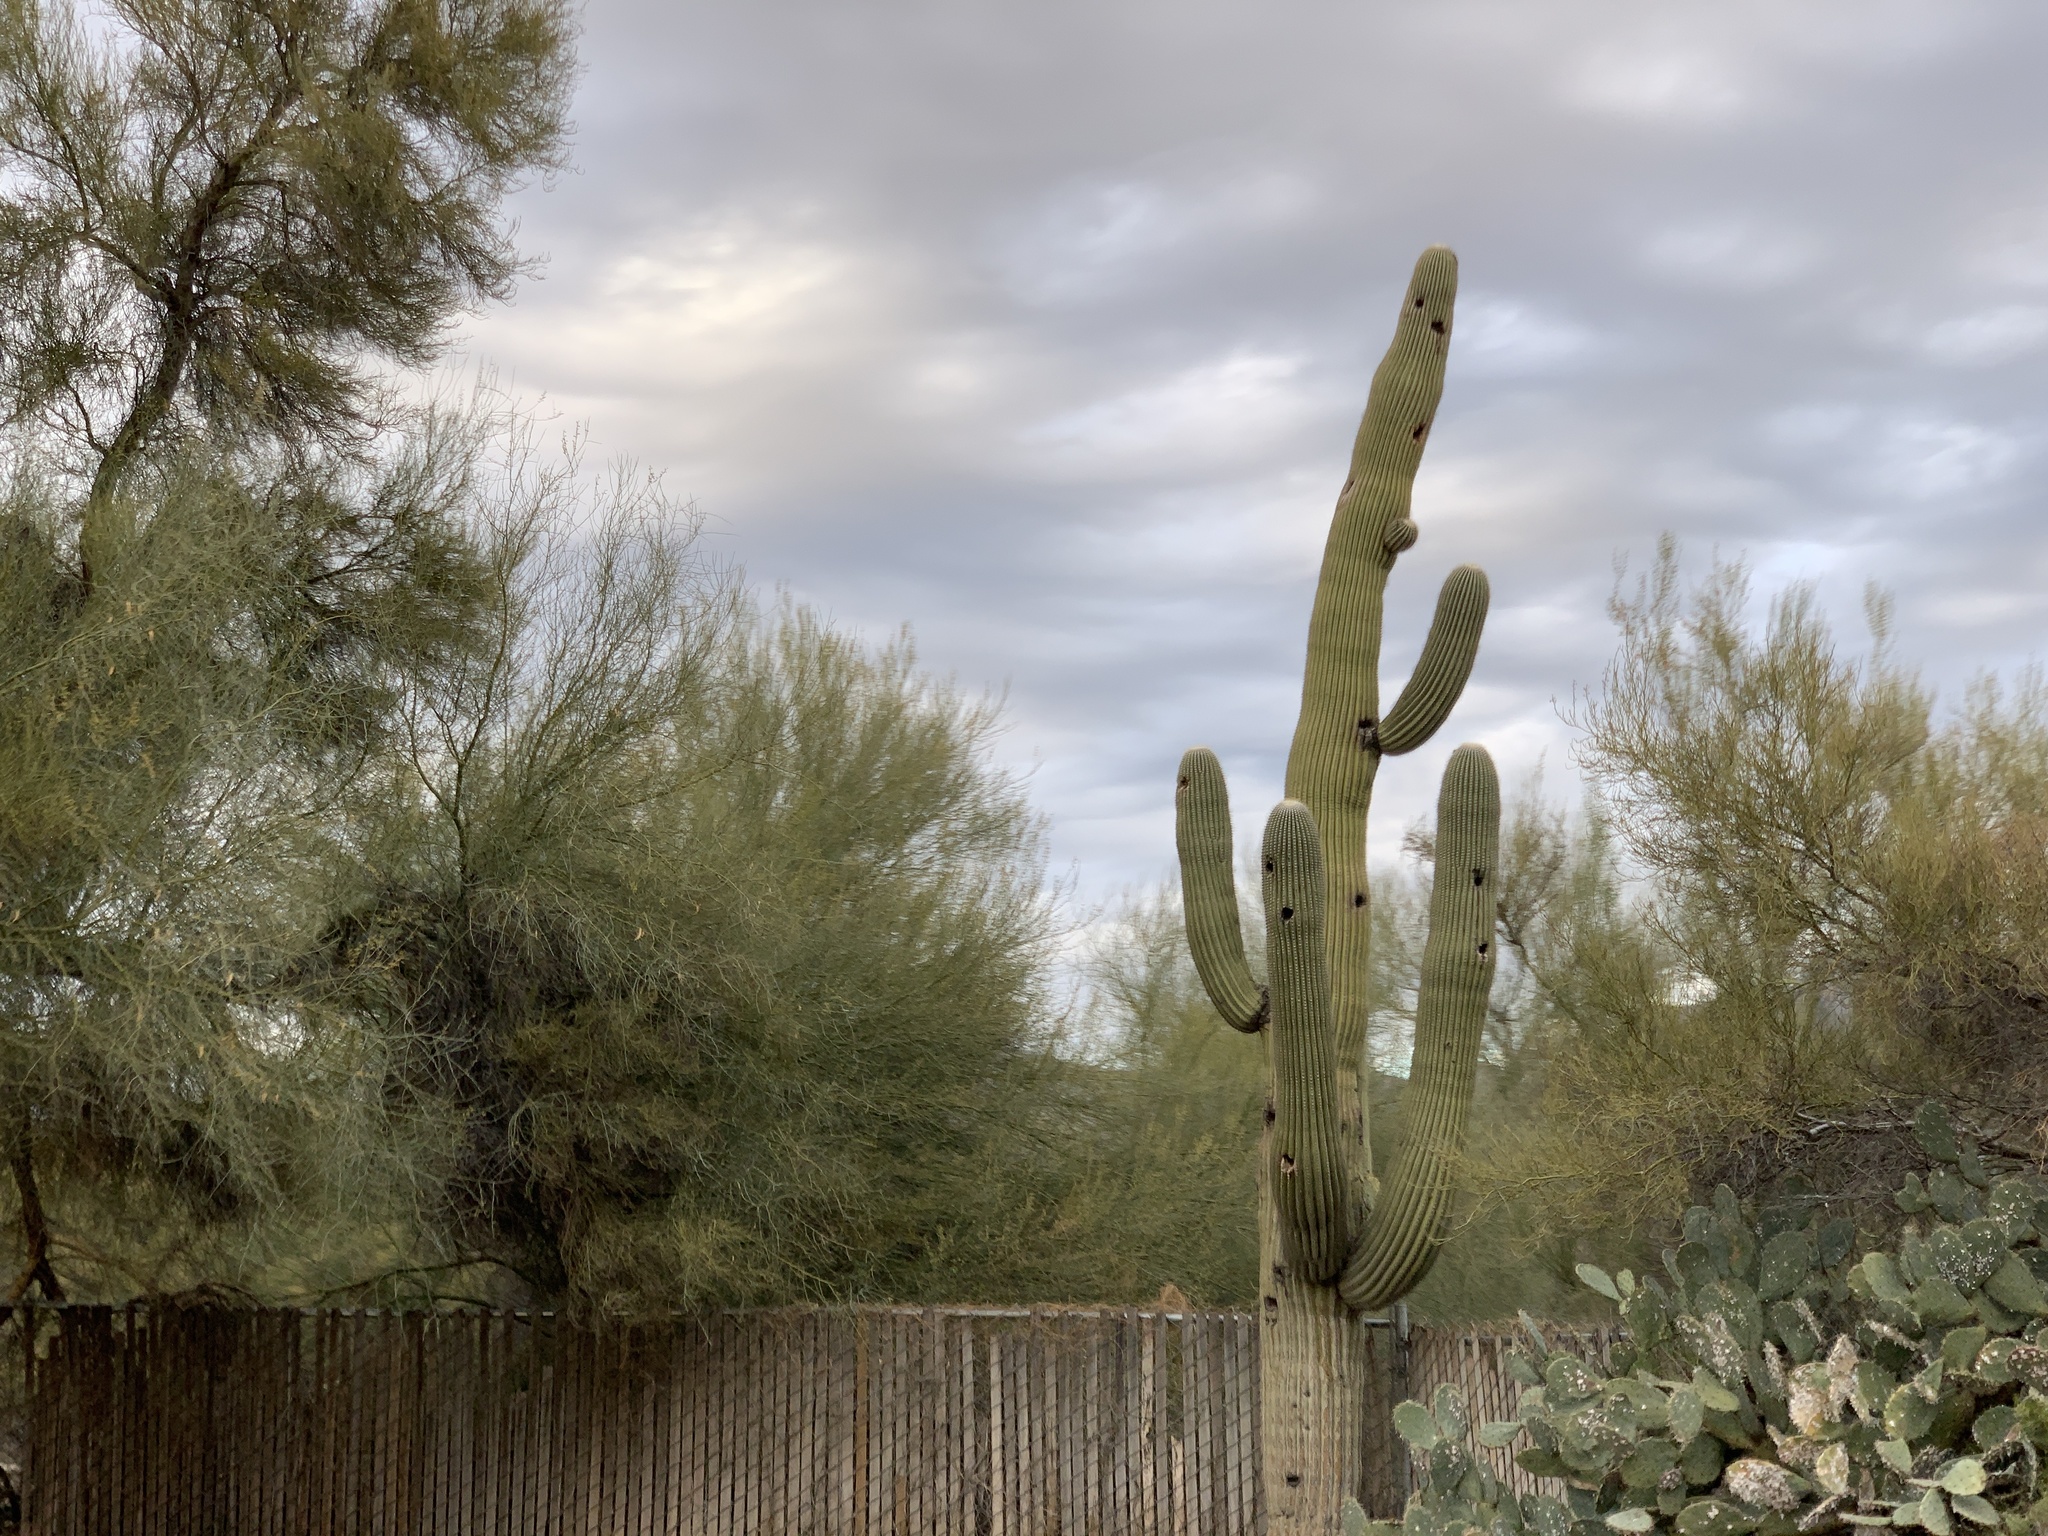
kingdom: Plantae
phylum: Tracheophyta
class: Magnoliopsida
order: Caryophyllales
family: Cactaceae
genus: Carnegiea
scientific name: Carnegiea gigantea
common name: Saguaro
